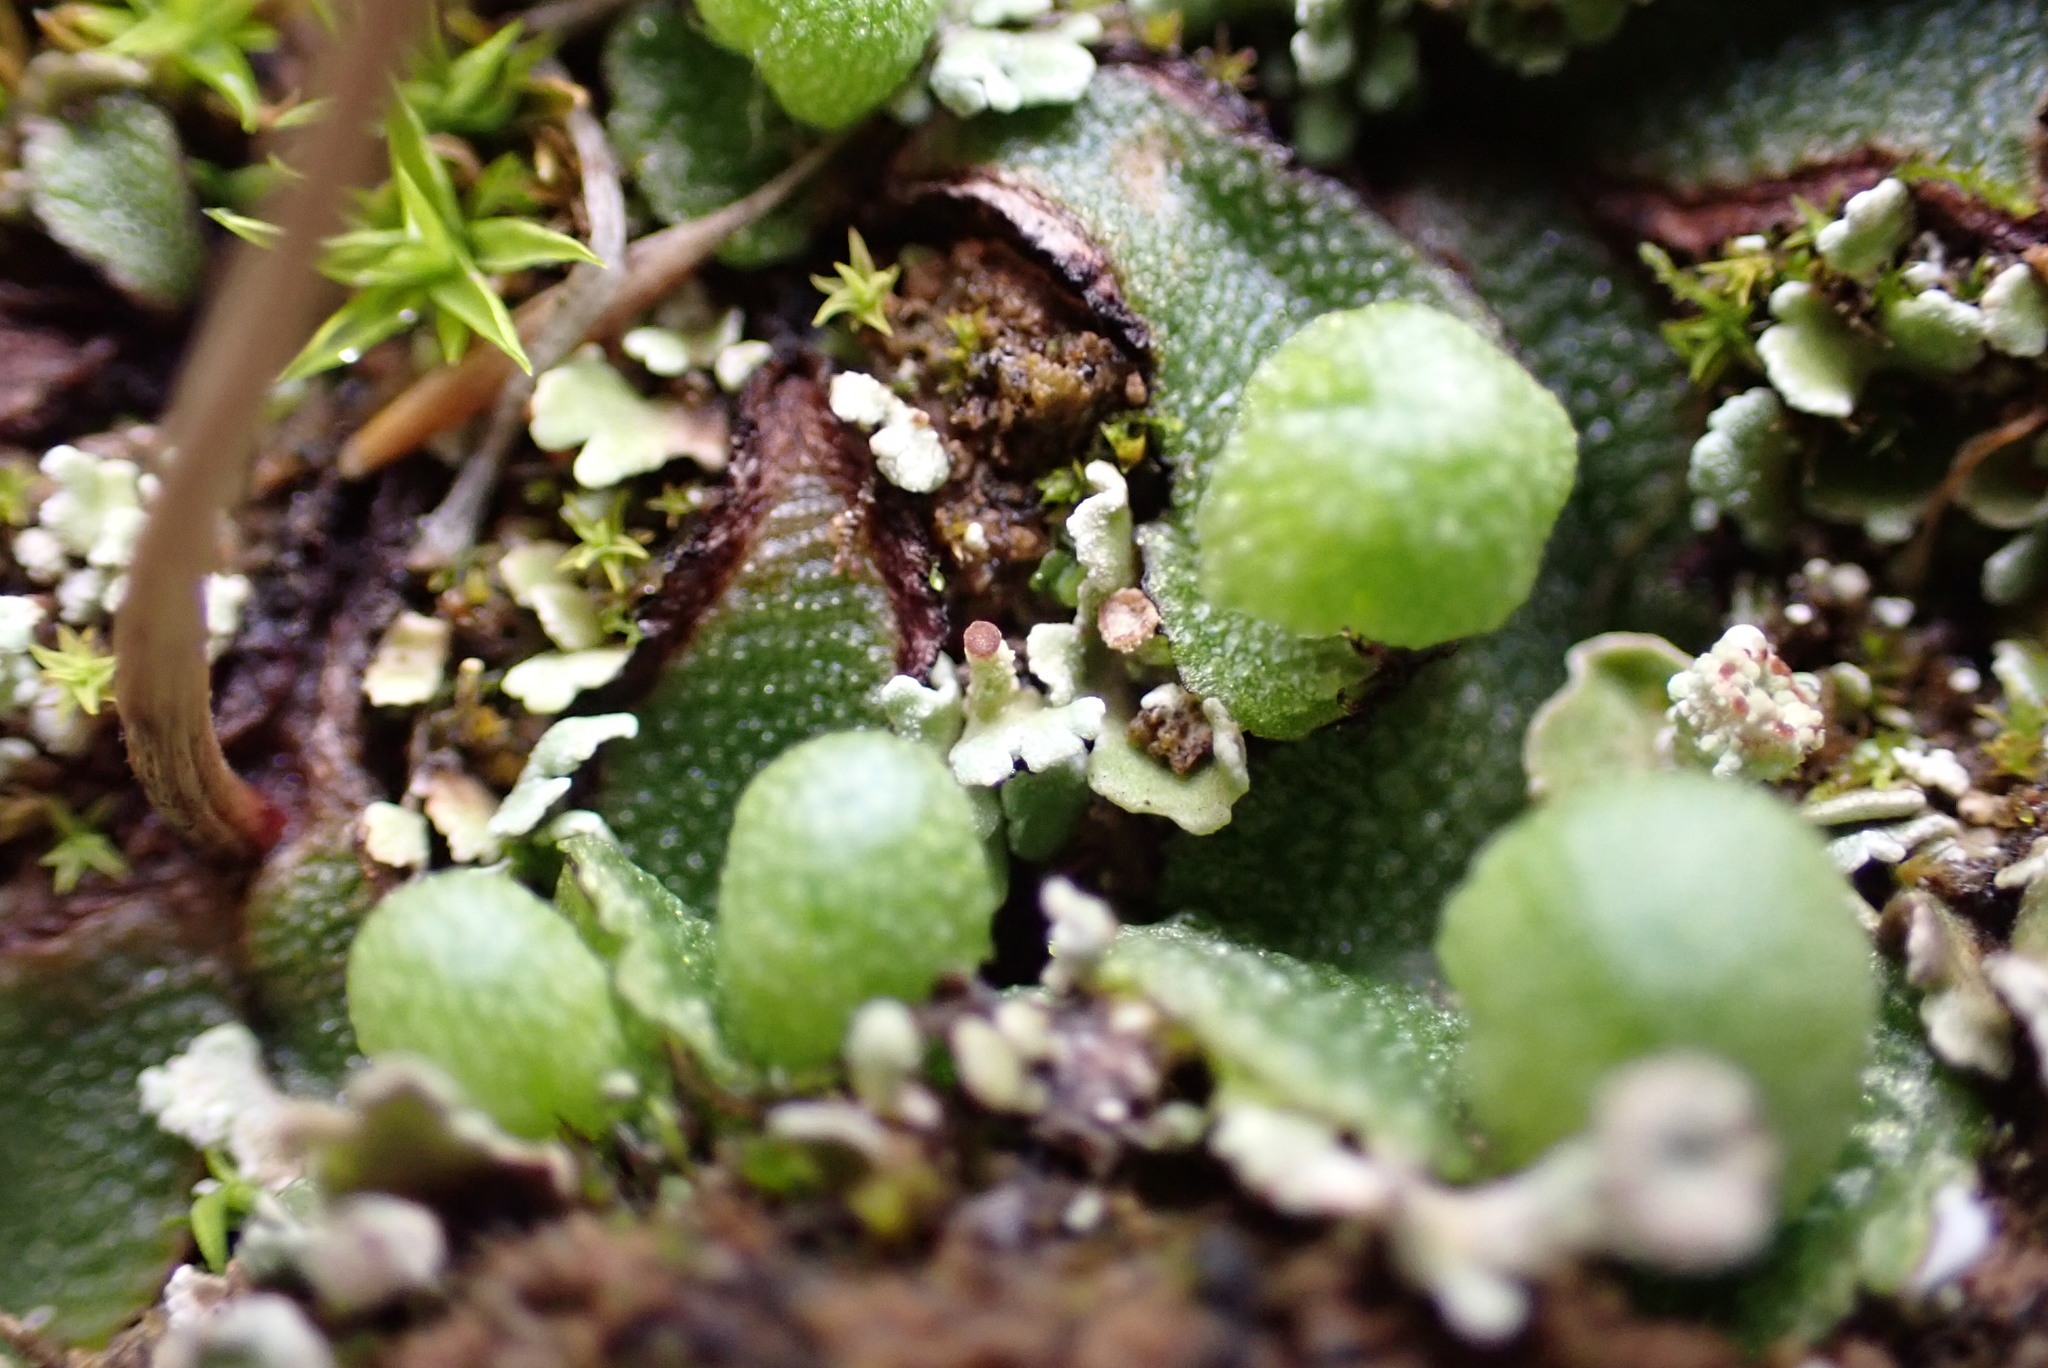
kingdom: Plantae
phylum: Marchantiophyta
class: Marchantiopsida
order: Marchantiales
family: Aytoniaceae
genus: Asterella
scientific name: Asterella californica
